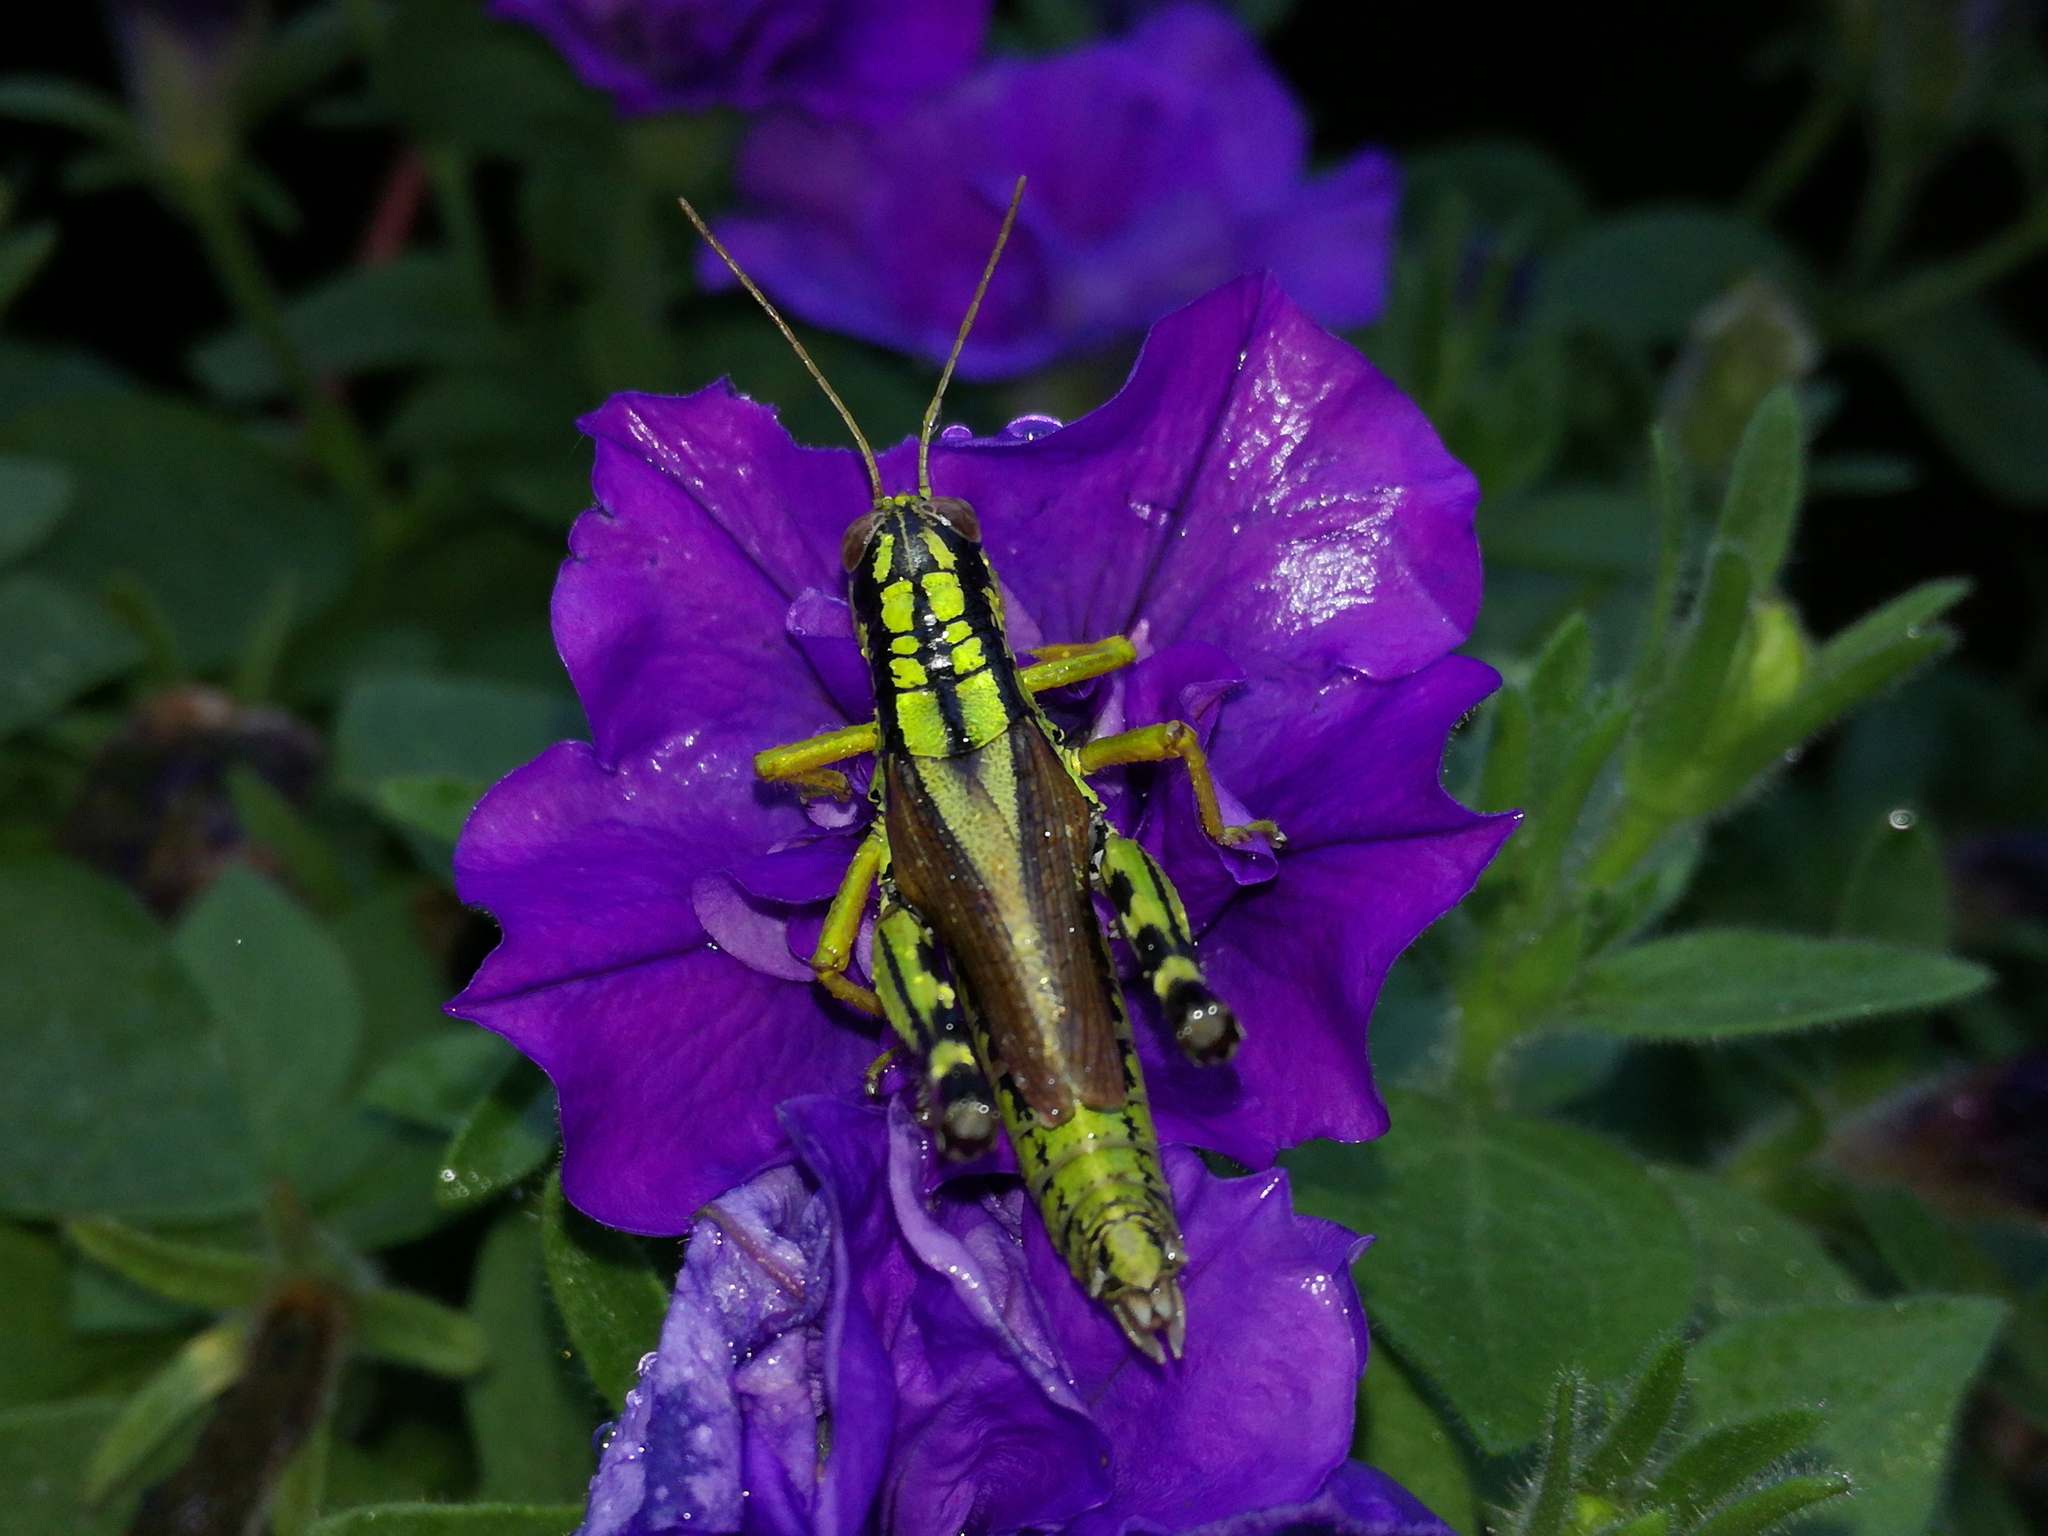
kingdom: Animalia
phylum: Arthropoda
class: Insecta
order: Orthoptera
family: Acrididae
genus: Miramella
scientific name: Miramella irena
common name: Long-winged mountain grasshopper
